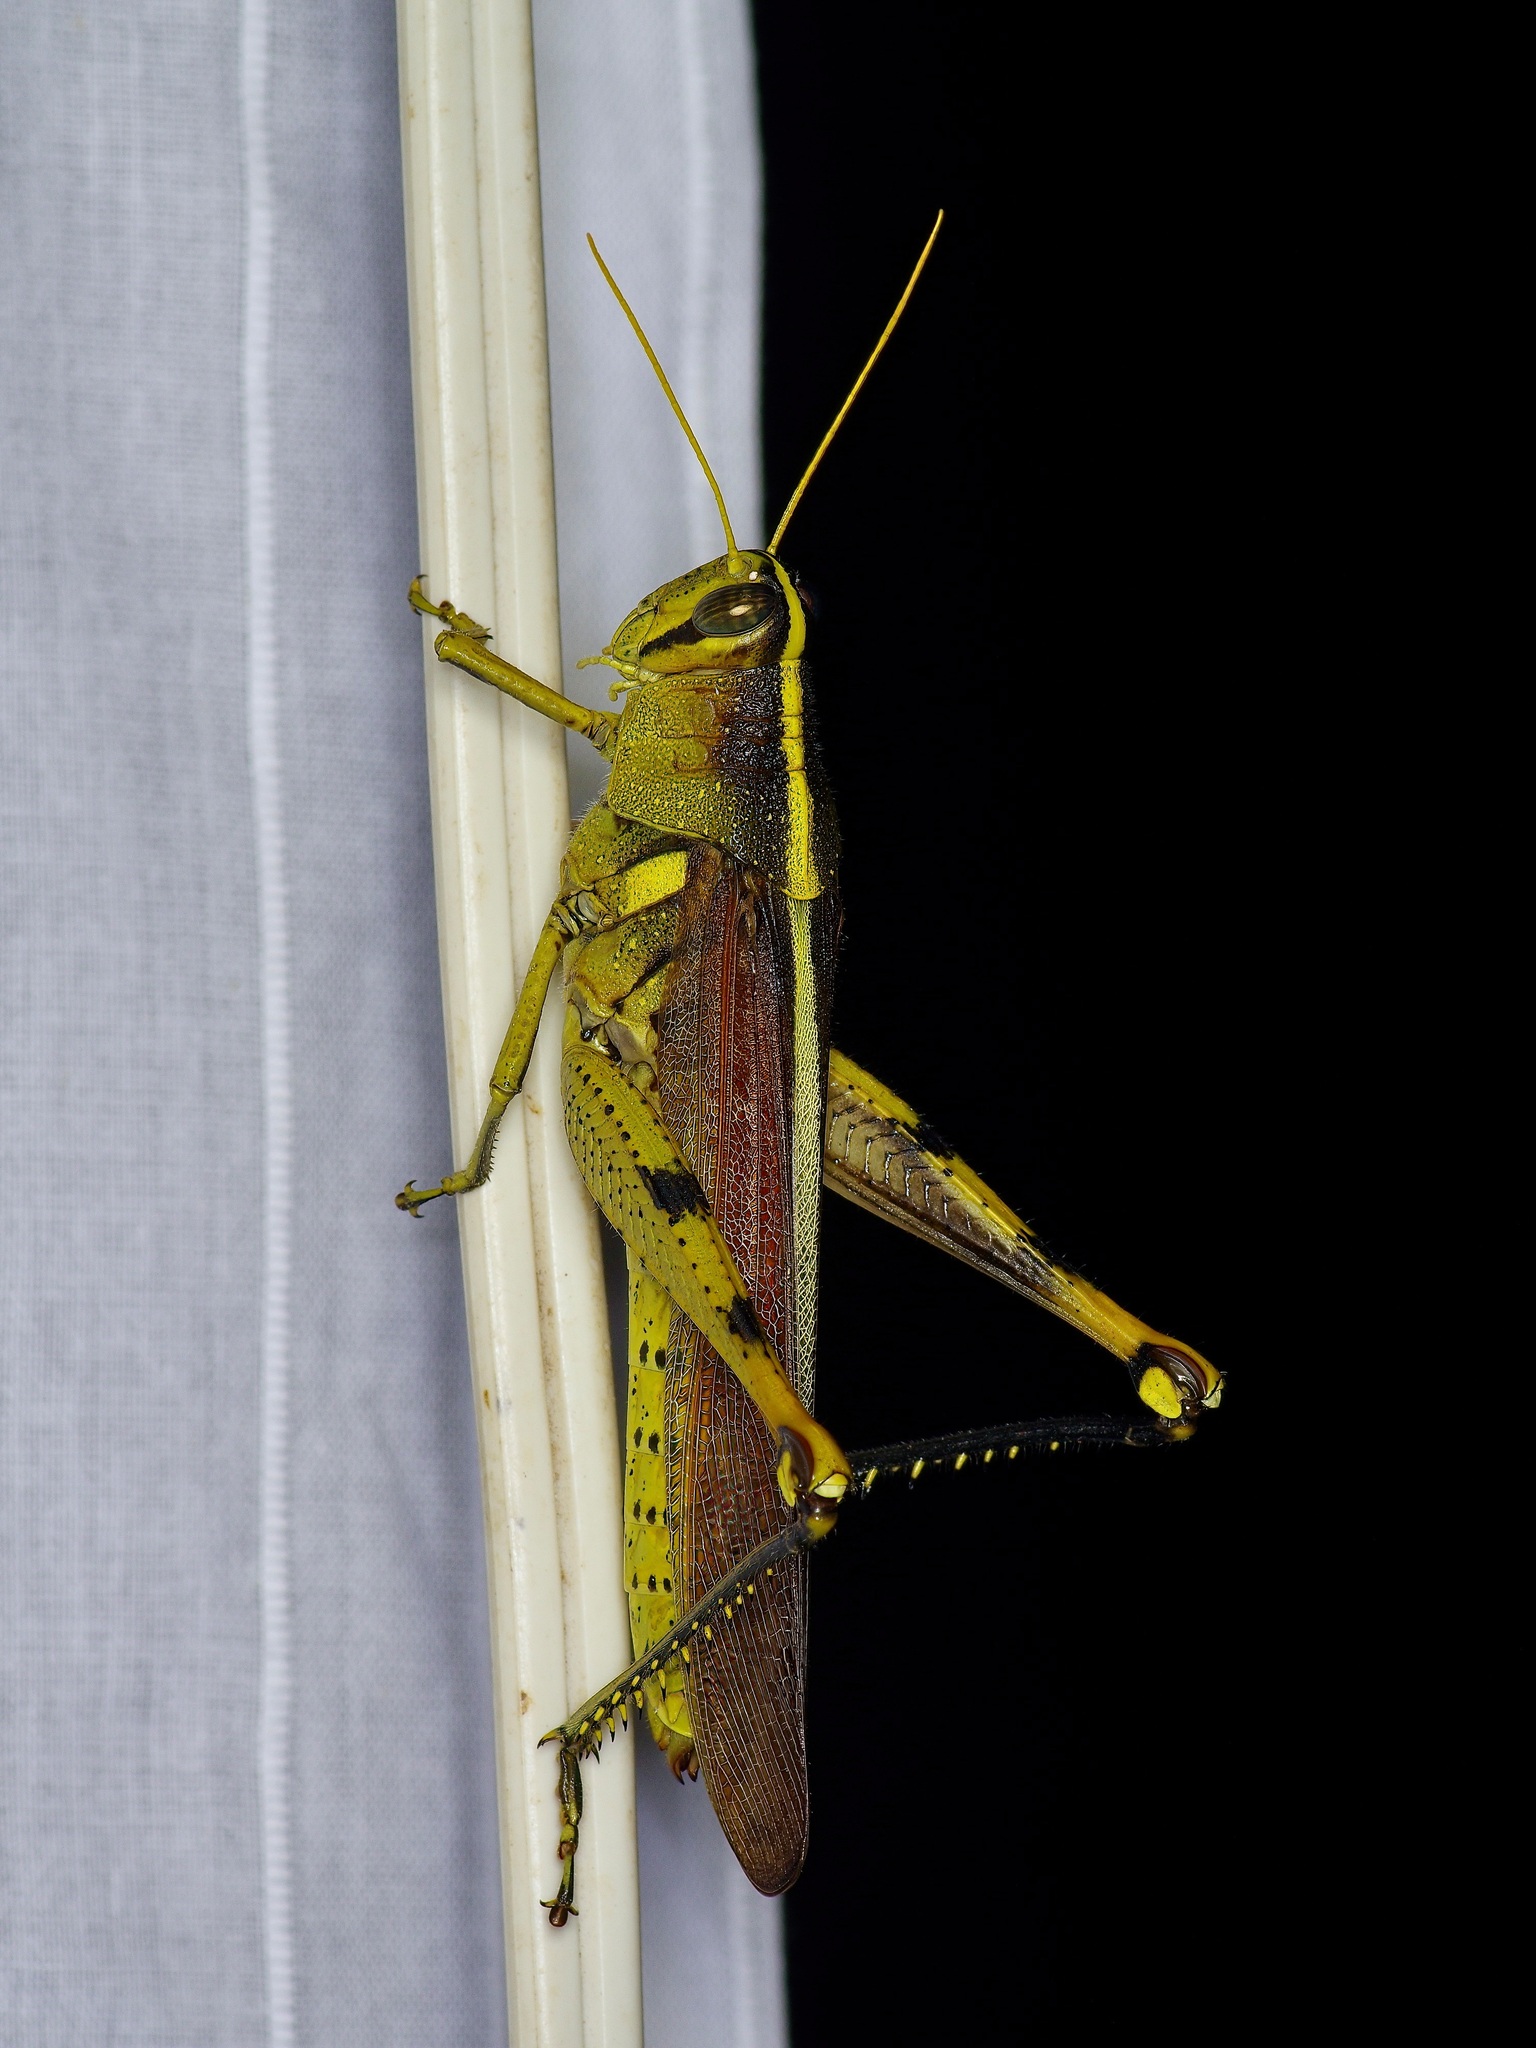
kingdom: Animalia
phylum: Arthropoda
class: Insecta
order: Orthoptera
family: Acrididae
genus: Schistocerca
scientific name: Schistocerca obscura
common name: Obscure bird grasshopper
